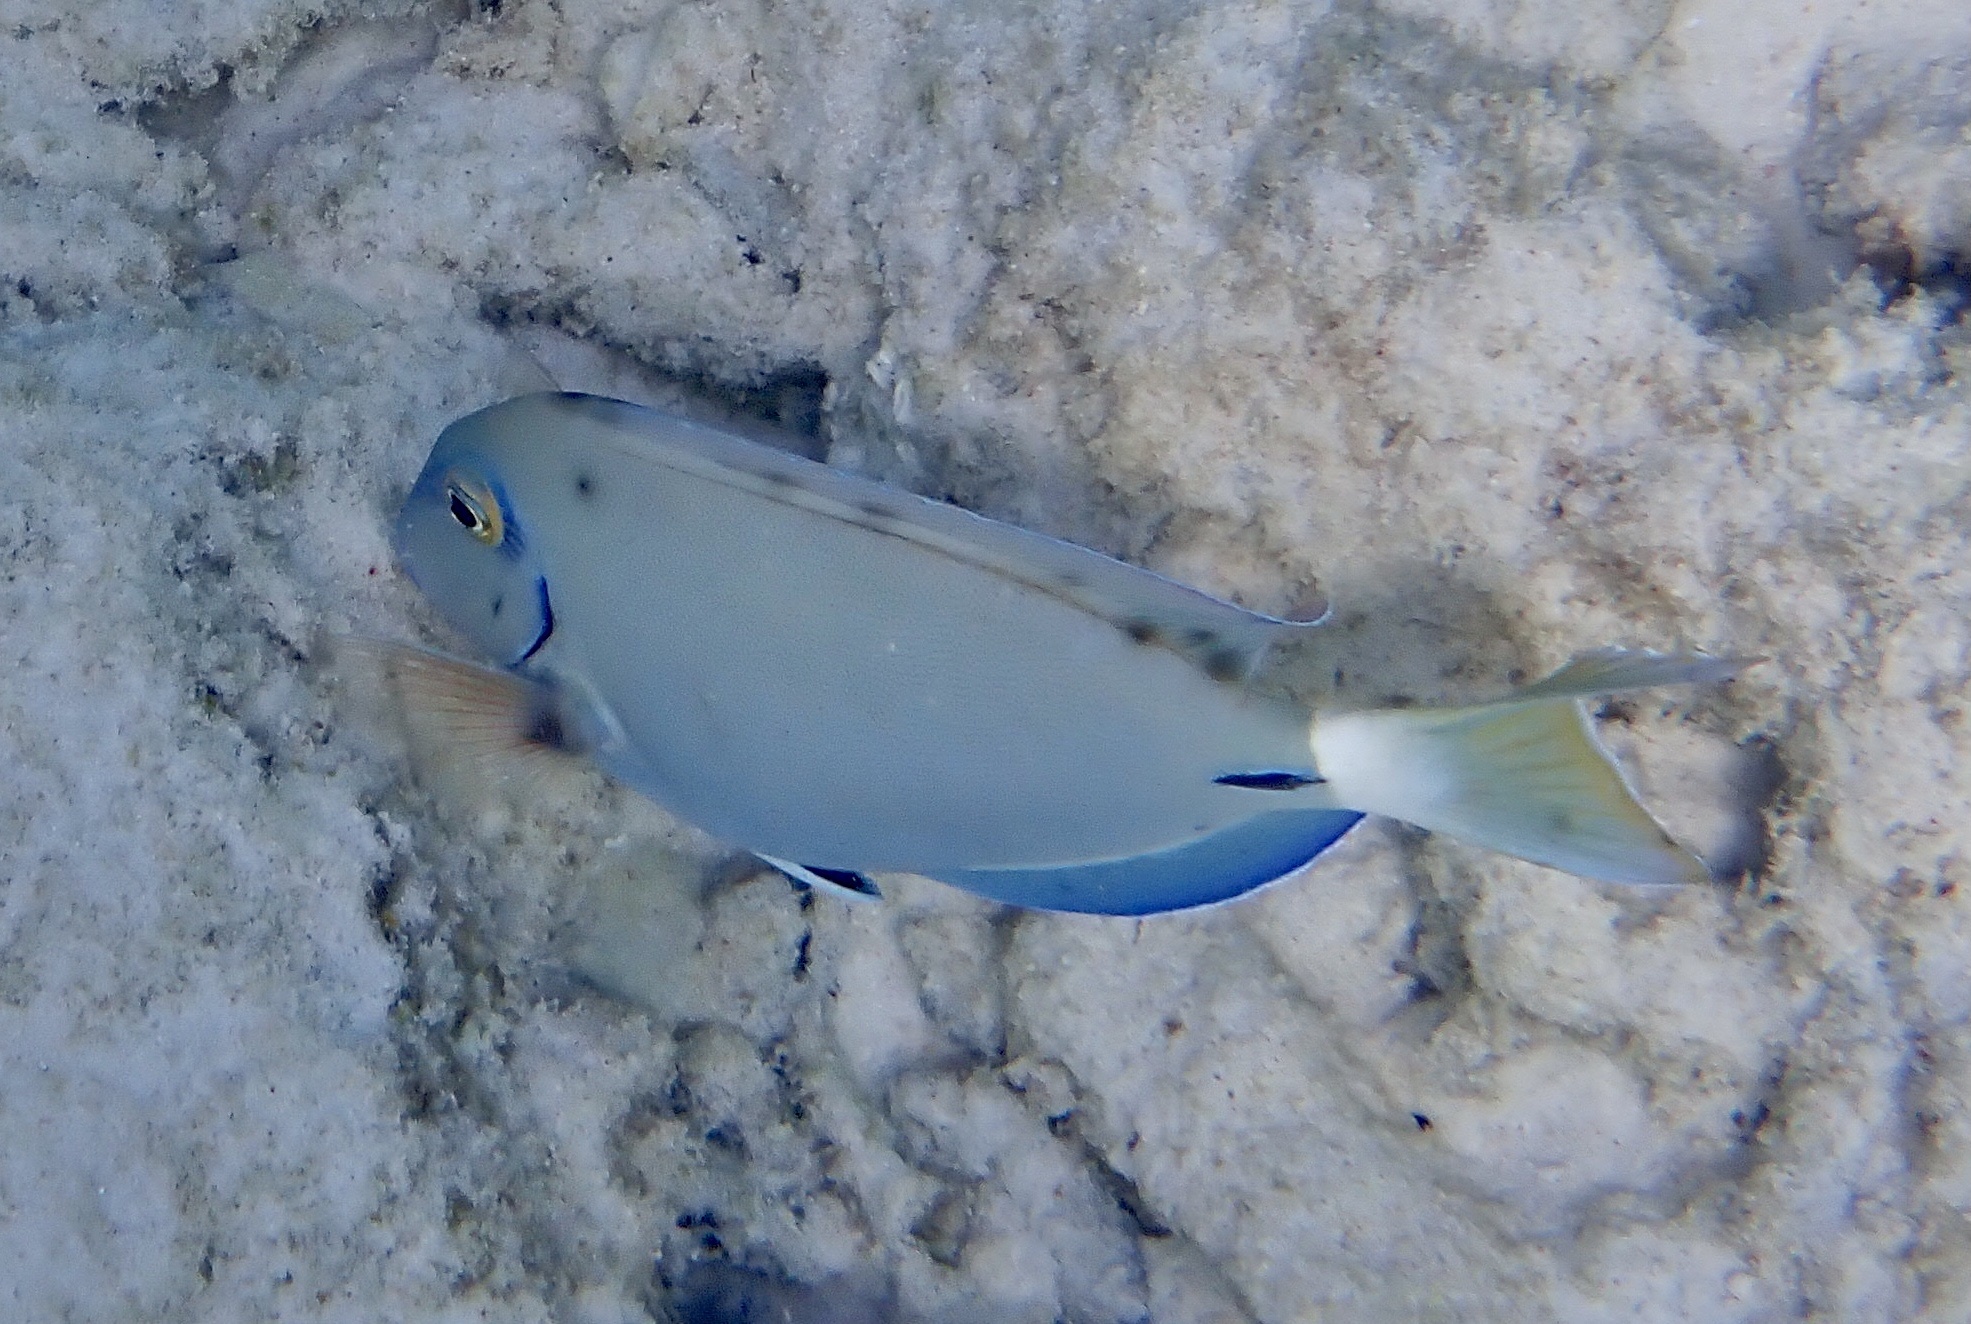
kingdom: Animalia
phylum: Chordata
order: Perciformes
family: Acanthuridae
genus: Acanthurus
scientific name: Acanthurus bahianus
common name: Ocean surgeon
